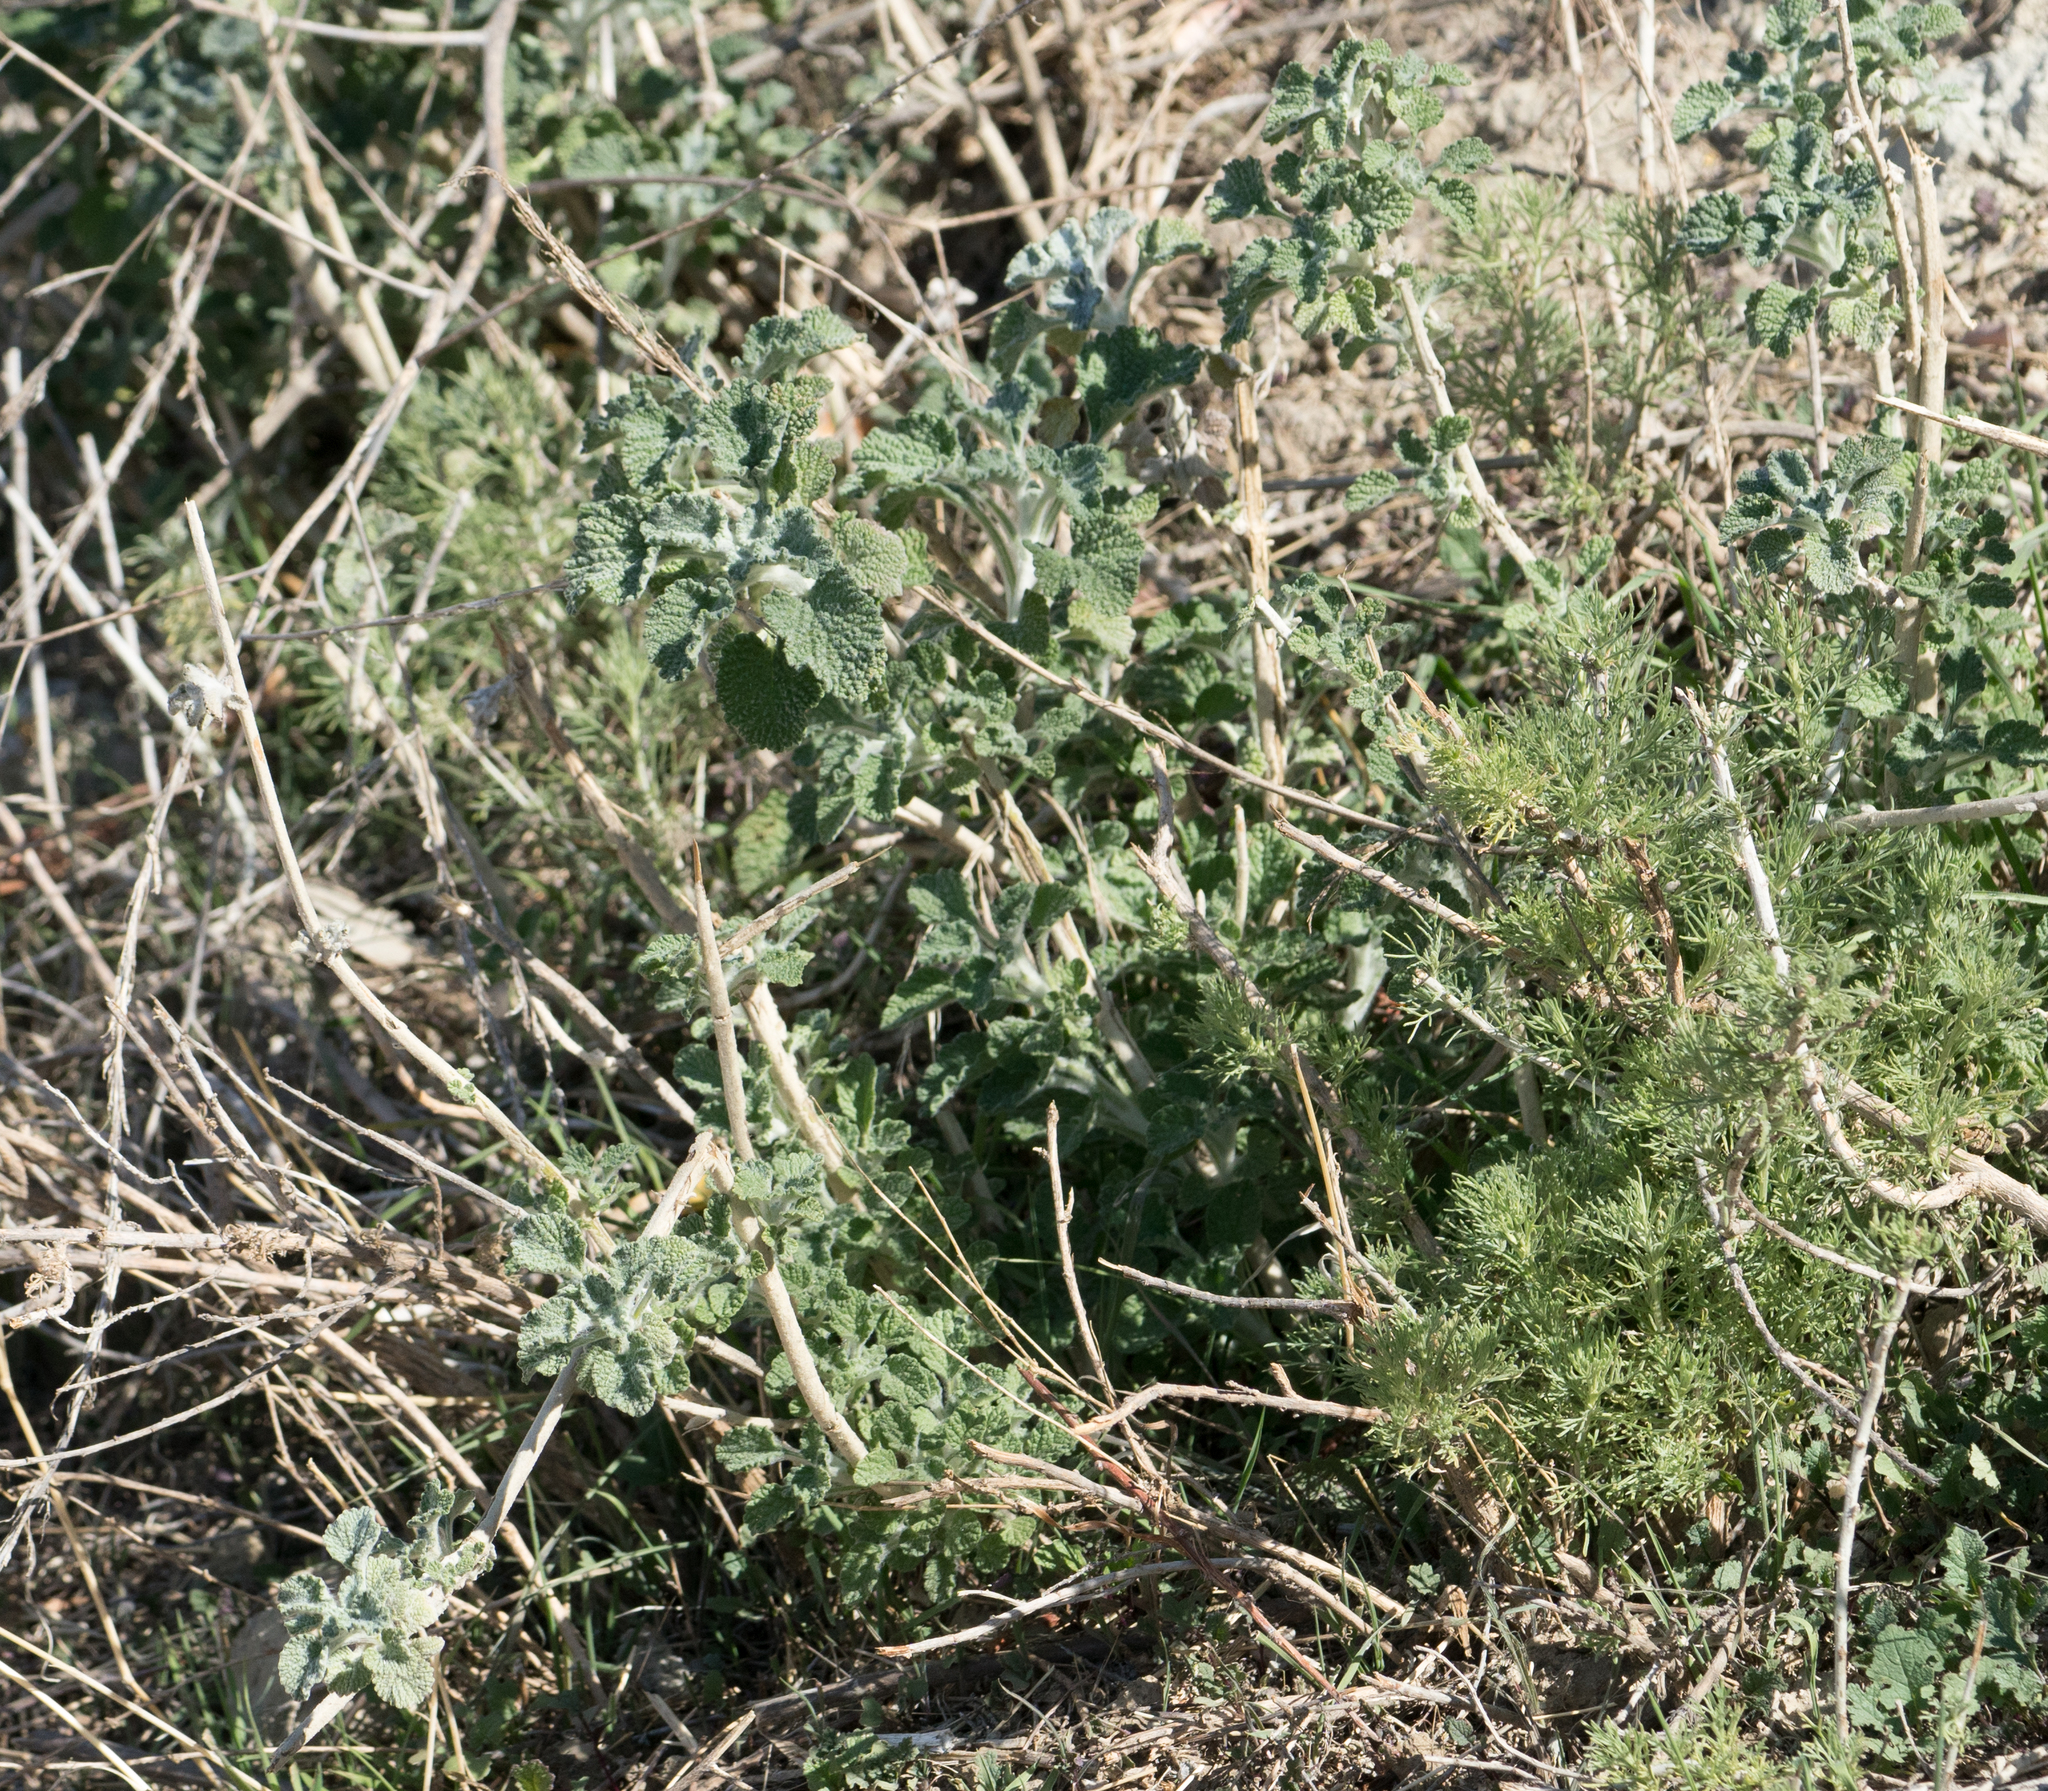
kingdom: Plantae
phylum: Tracheophyta
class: Magnoliopsida
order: Lamiales
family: Lamiaceae
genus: Marrubium
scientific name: Marrubium vulgare
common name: Horehound
